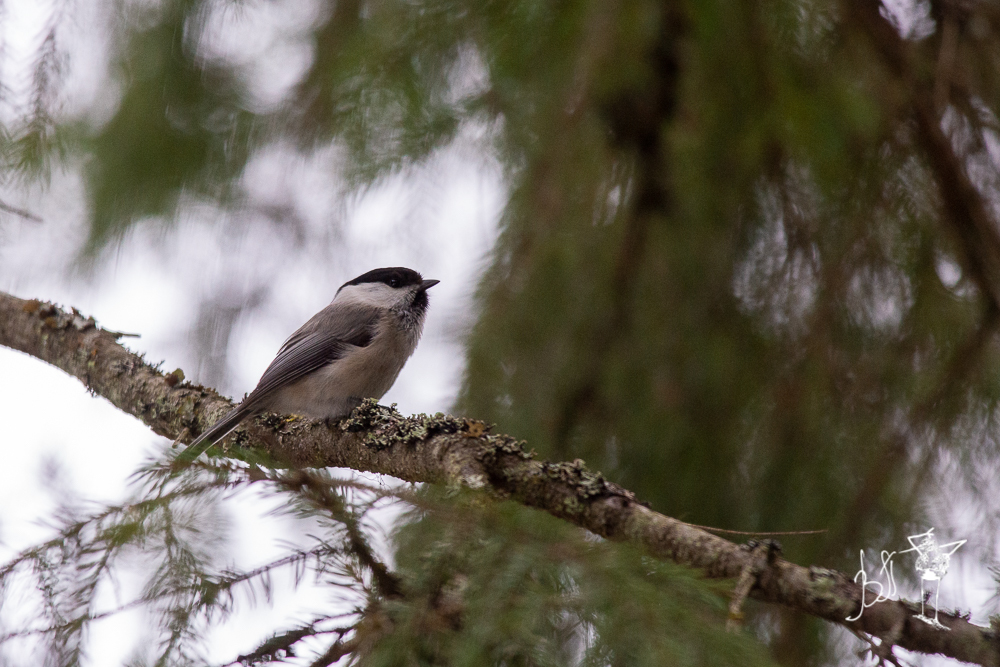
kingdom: Animalia
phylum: Chordata
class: Aves
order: Passeriformes
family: Paridae
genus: Poecile
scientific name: Poecile montanus
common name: Willow tit
